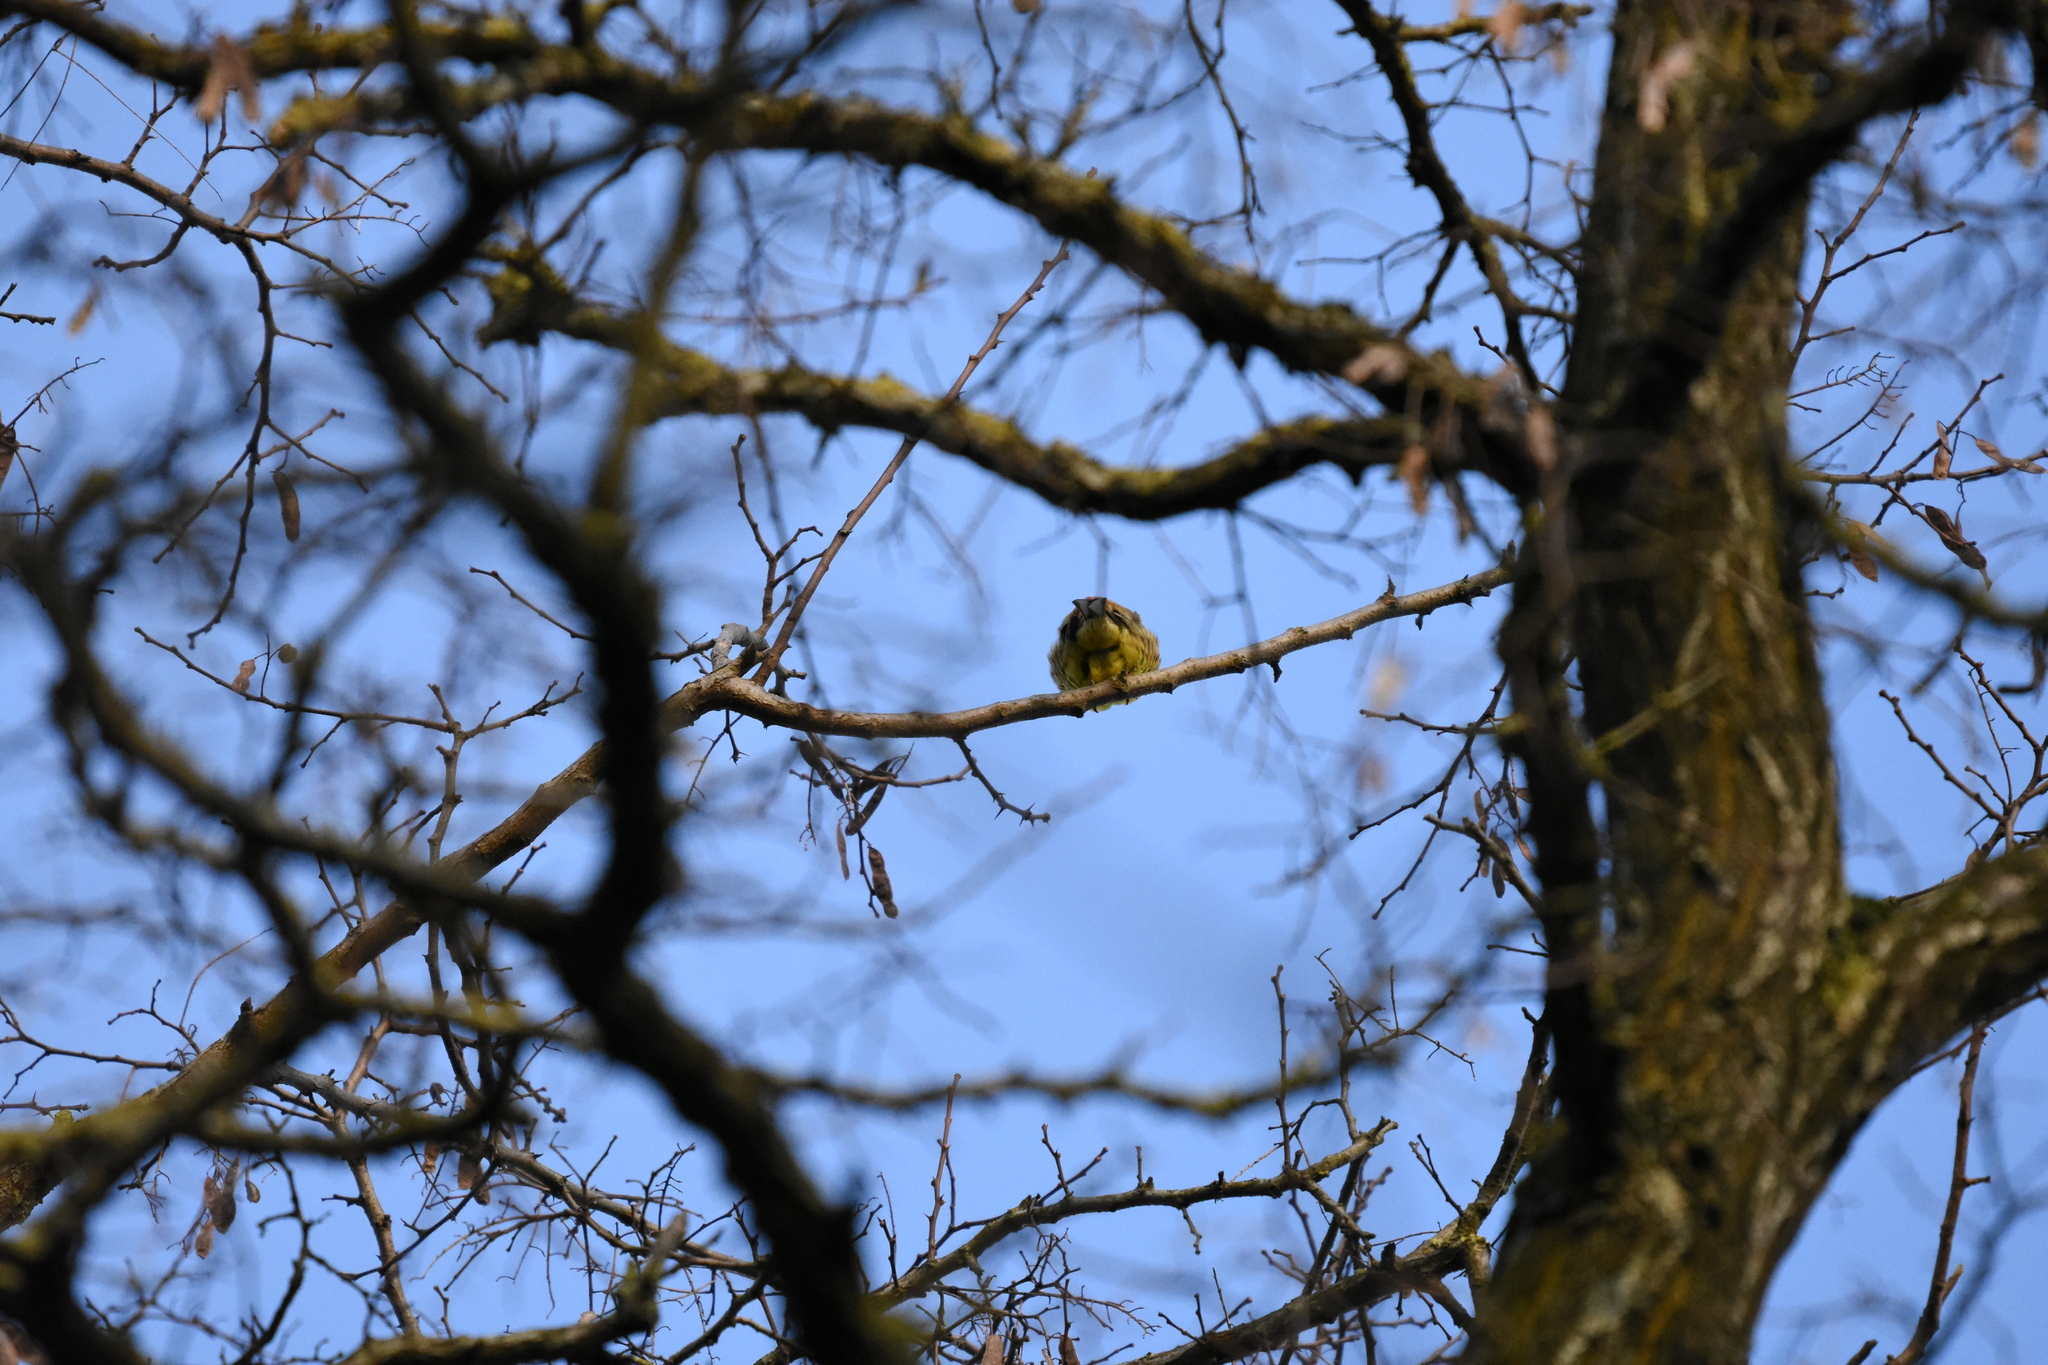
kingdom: Animalia
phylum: Chordata
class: Aves
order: Passeriformes
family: Emberizidae
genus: Emberiza
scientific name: Emberiza citrinella
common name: Yellowhammer
